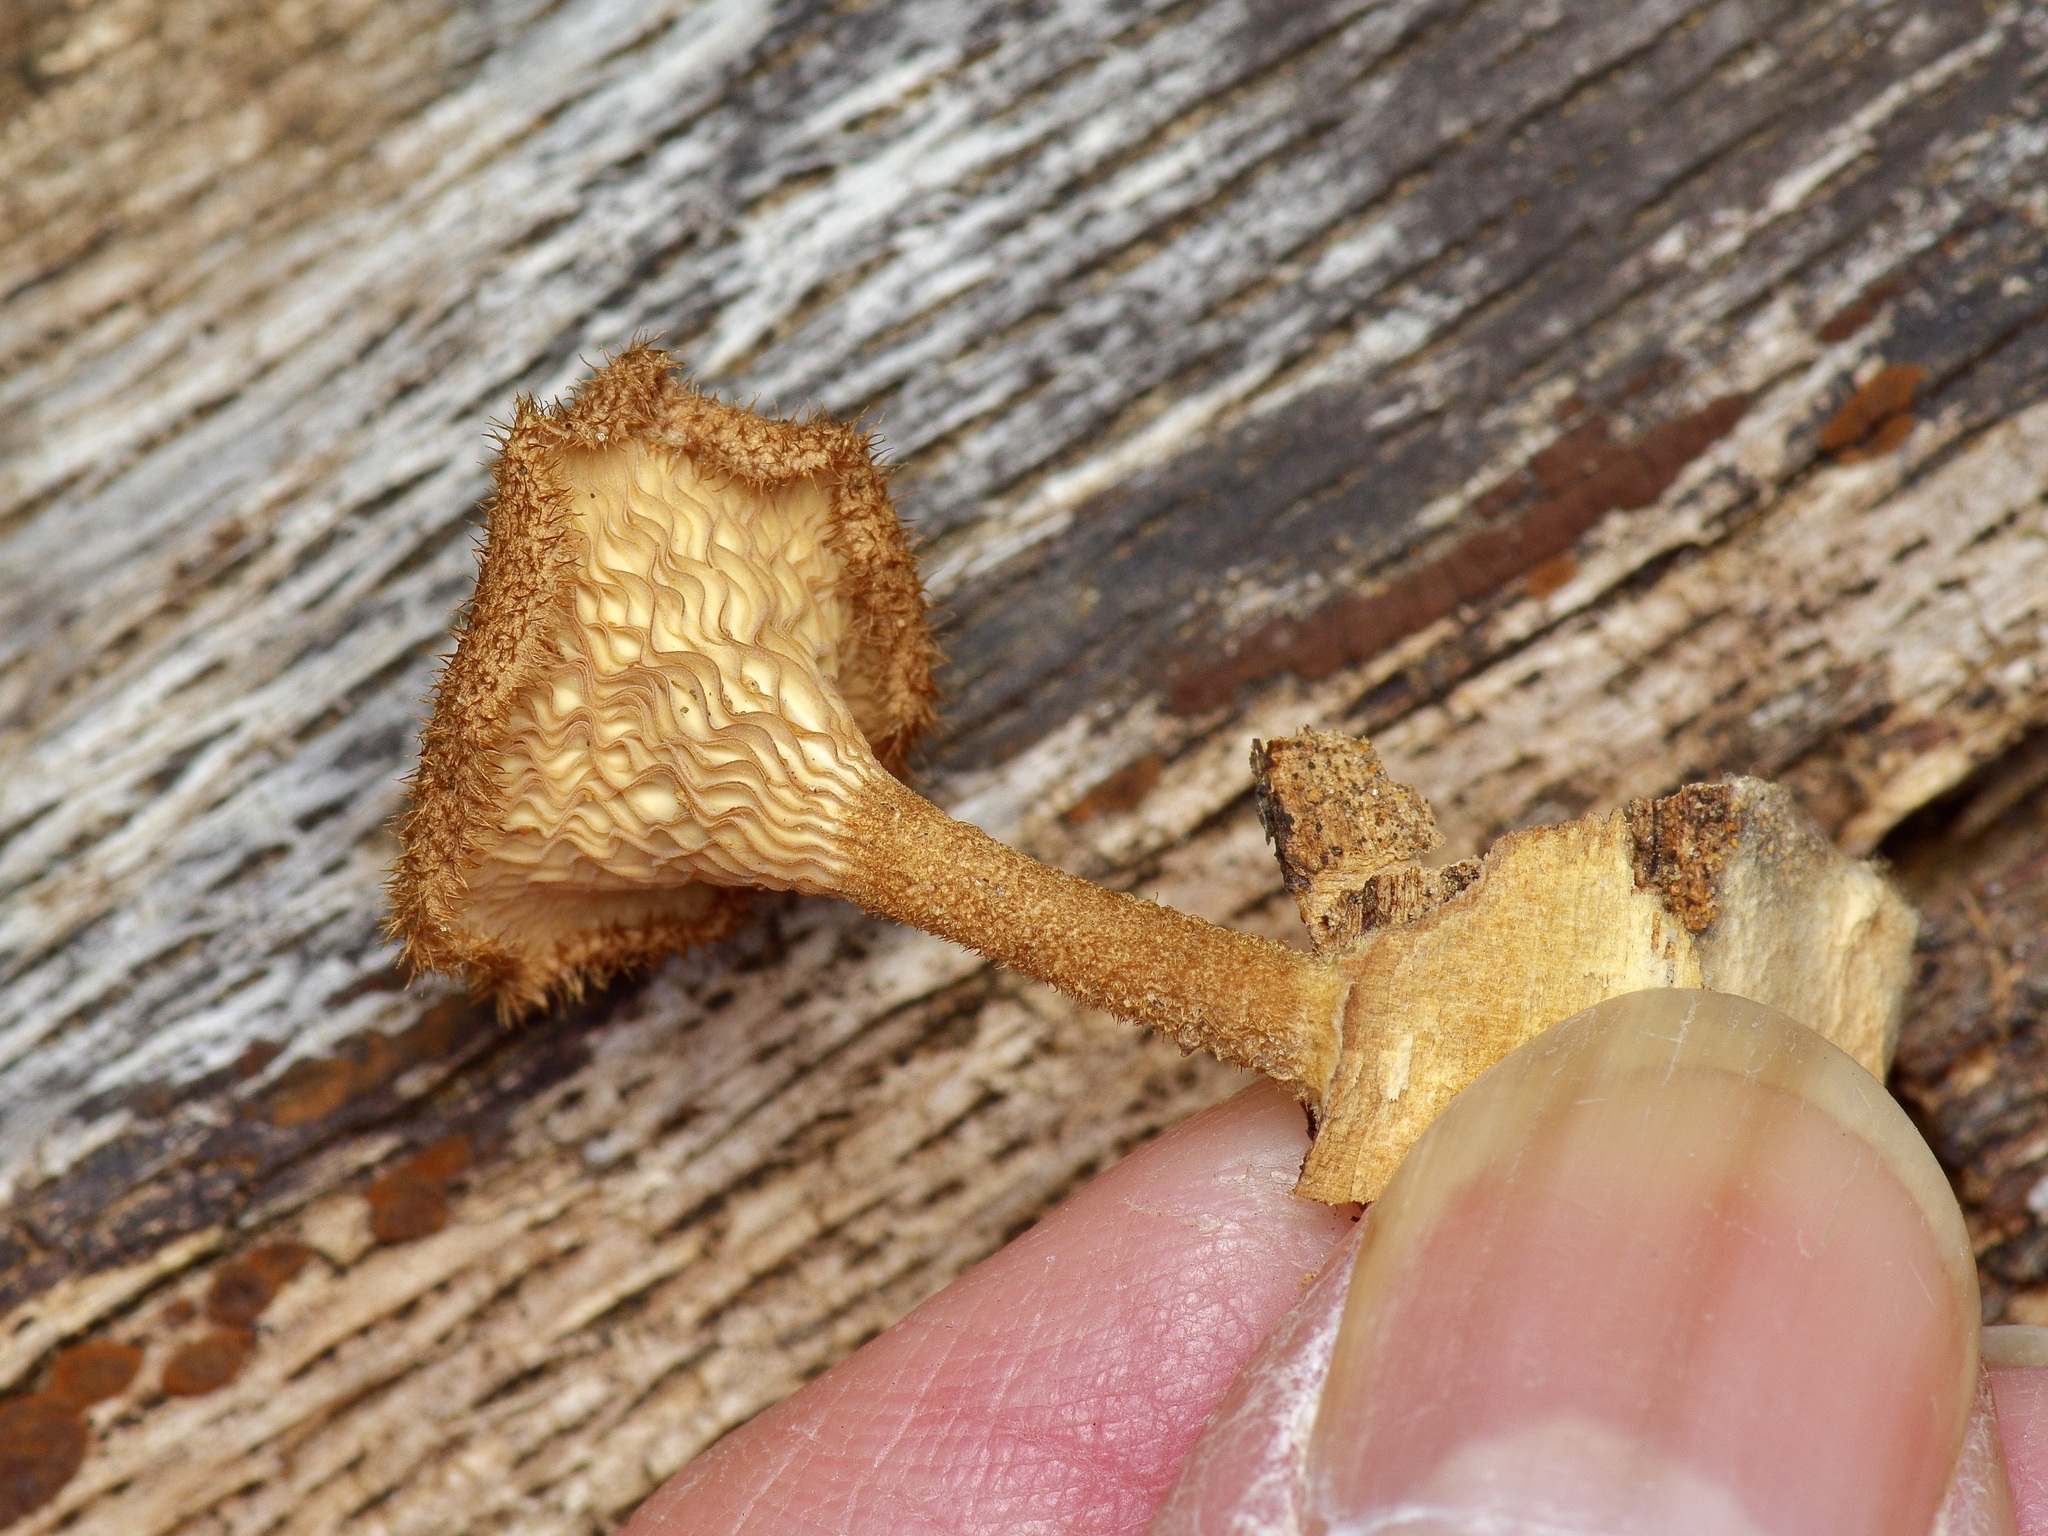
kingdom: Fungi
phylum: Basidiomycota
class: Agaricomycetes
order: Polyporales
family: Panaceae
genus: Panus
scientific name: Panus strigellus
